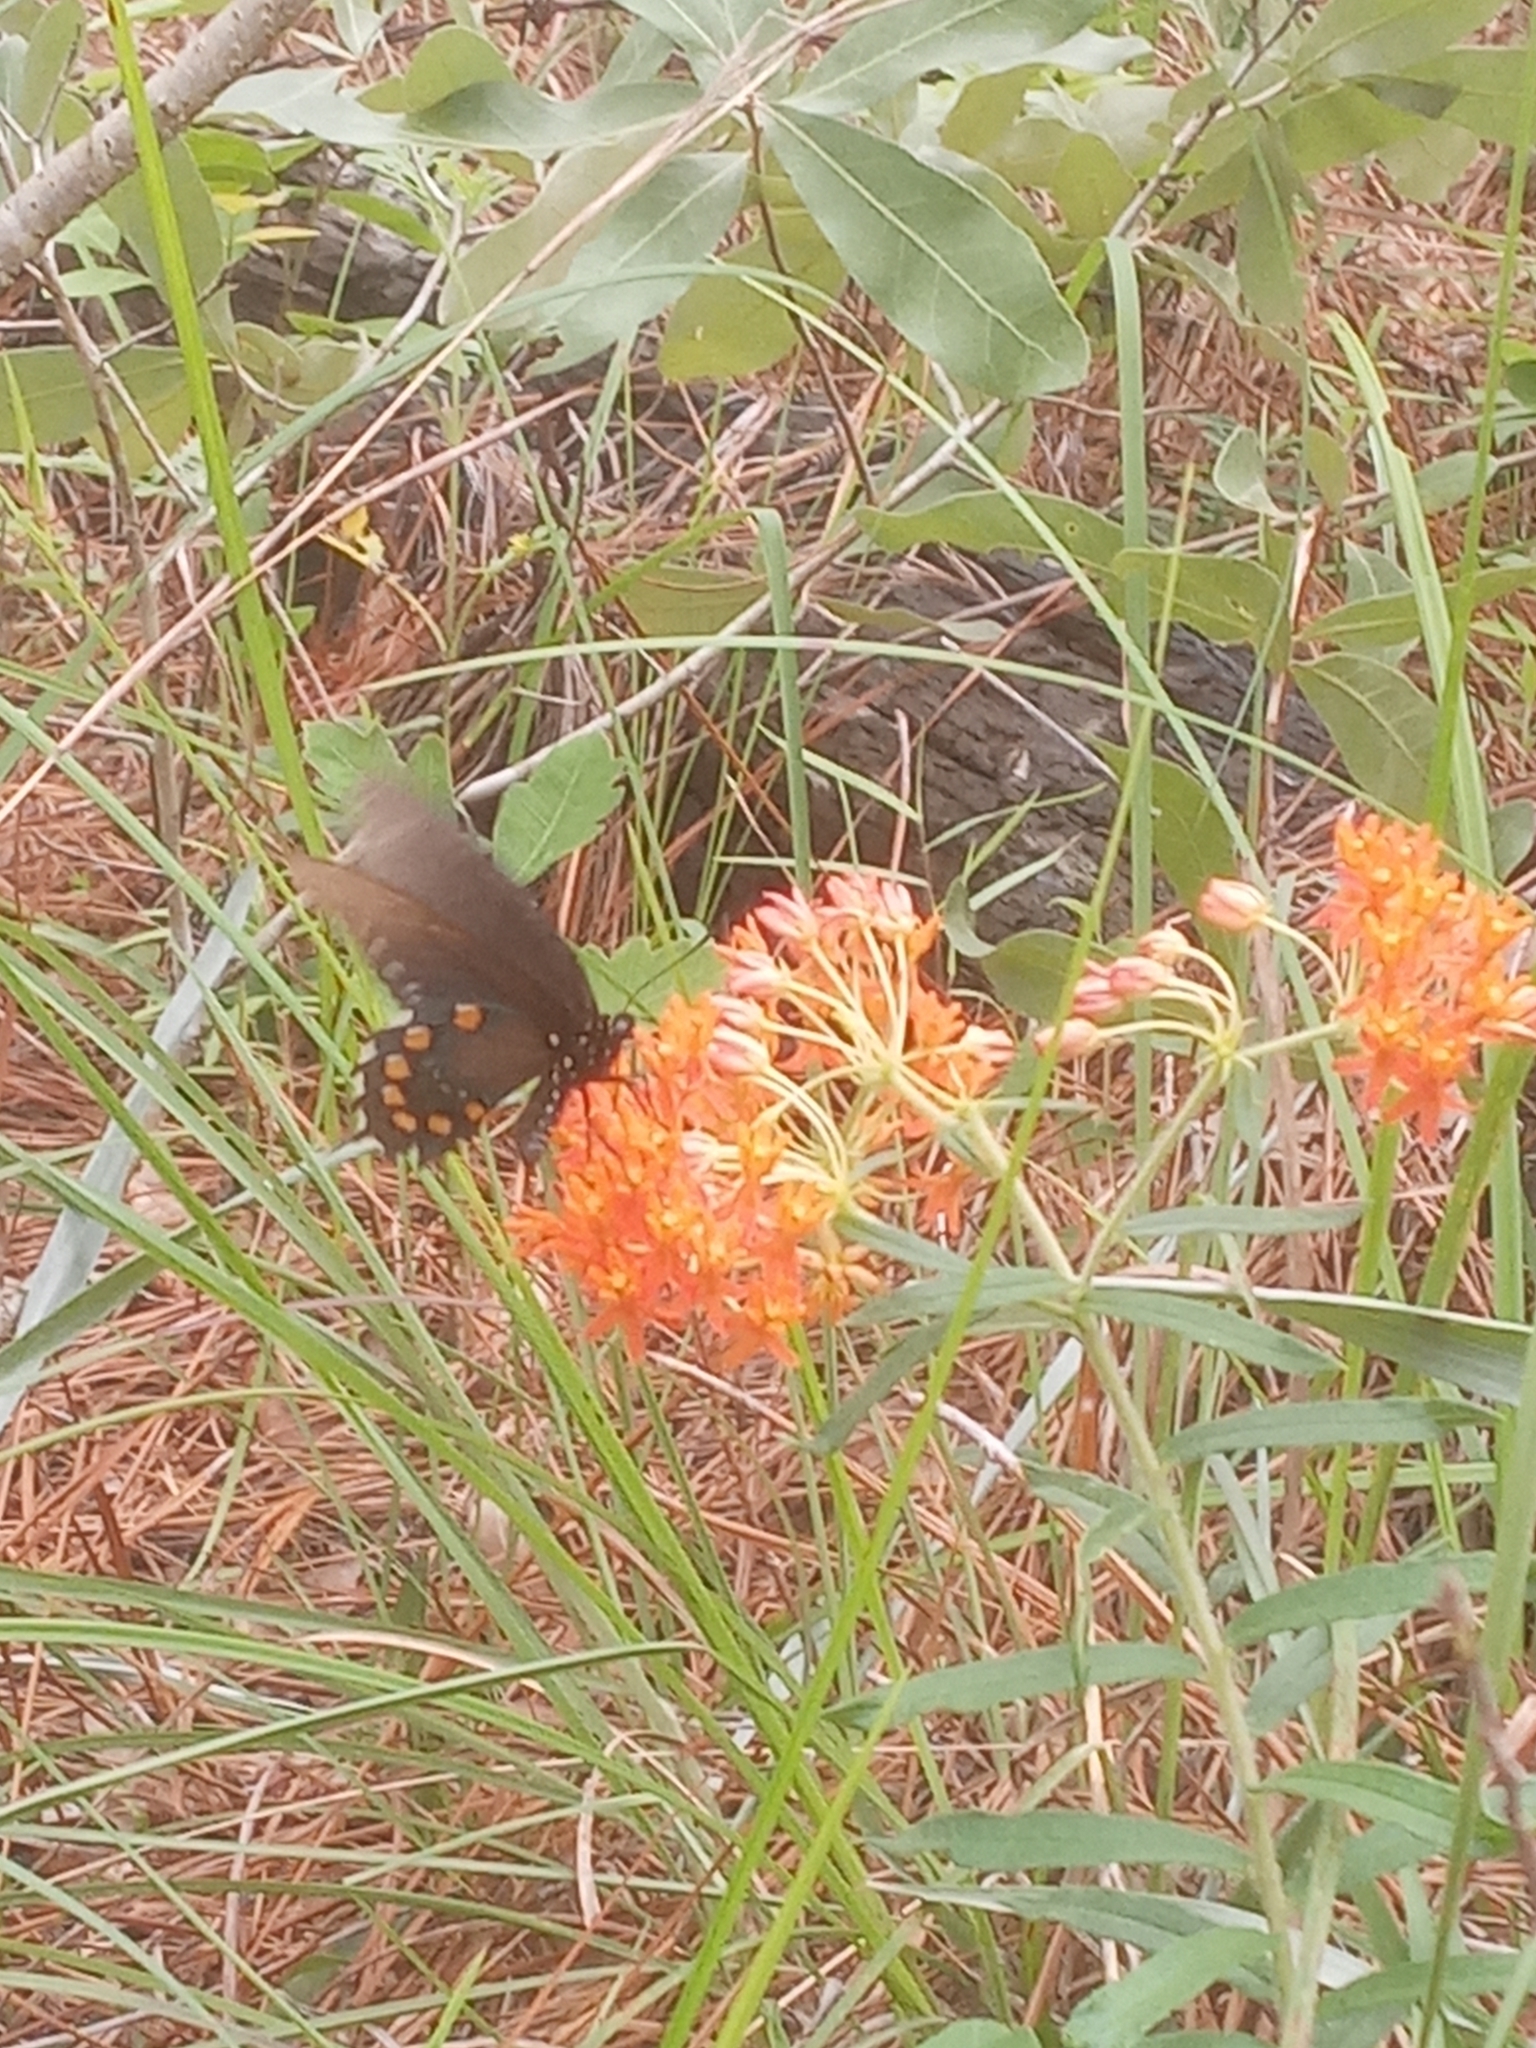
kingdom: Animalia
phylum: Arthropoda
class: Insecta
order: Lepidoptera
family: Papilionidae
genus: Battus
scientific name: Battus philenor
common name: Pipevine swallowtail
